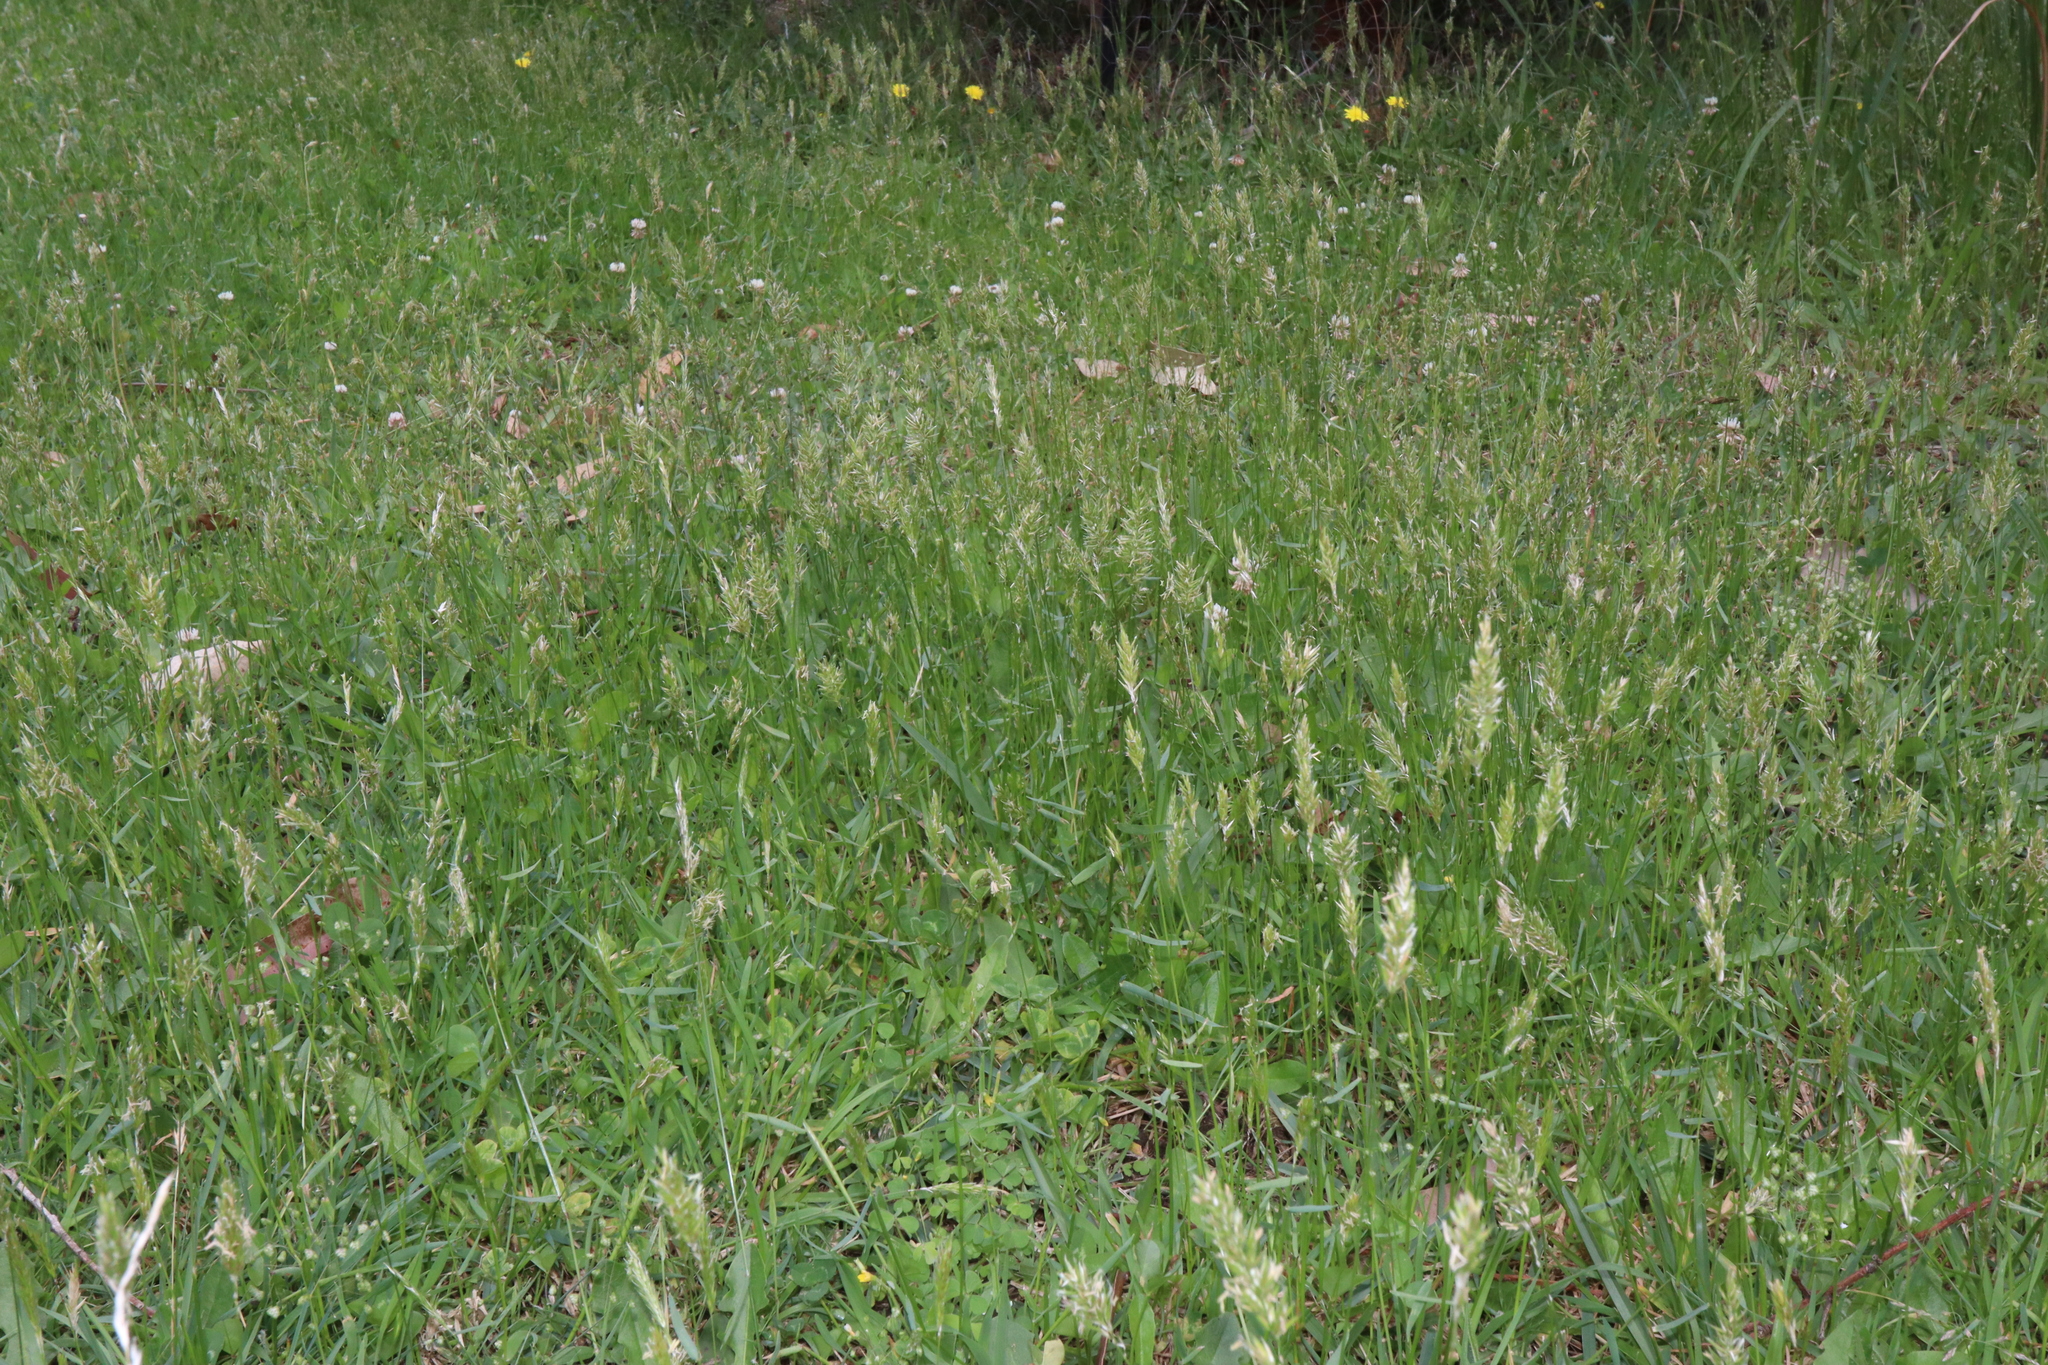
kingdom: Plantae
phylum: Tracheophyta
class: Liliopsida
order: Poales
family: Poaceae
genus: Anthoxanthum
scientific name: Anthoxanthum odoratum
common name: Sweet vernalgrass
